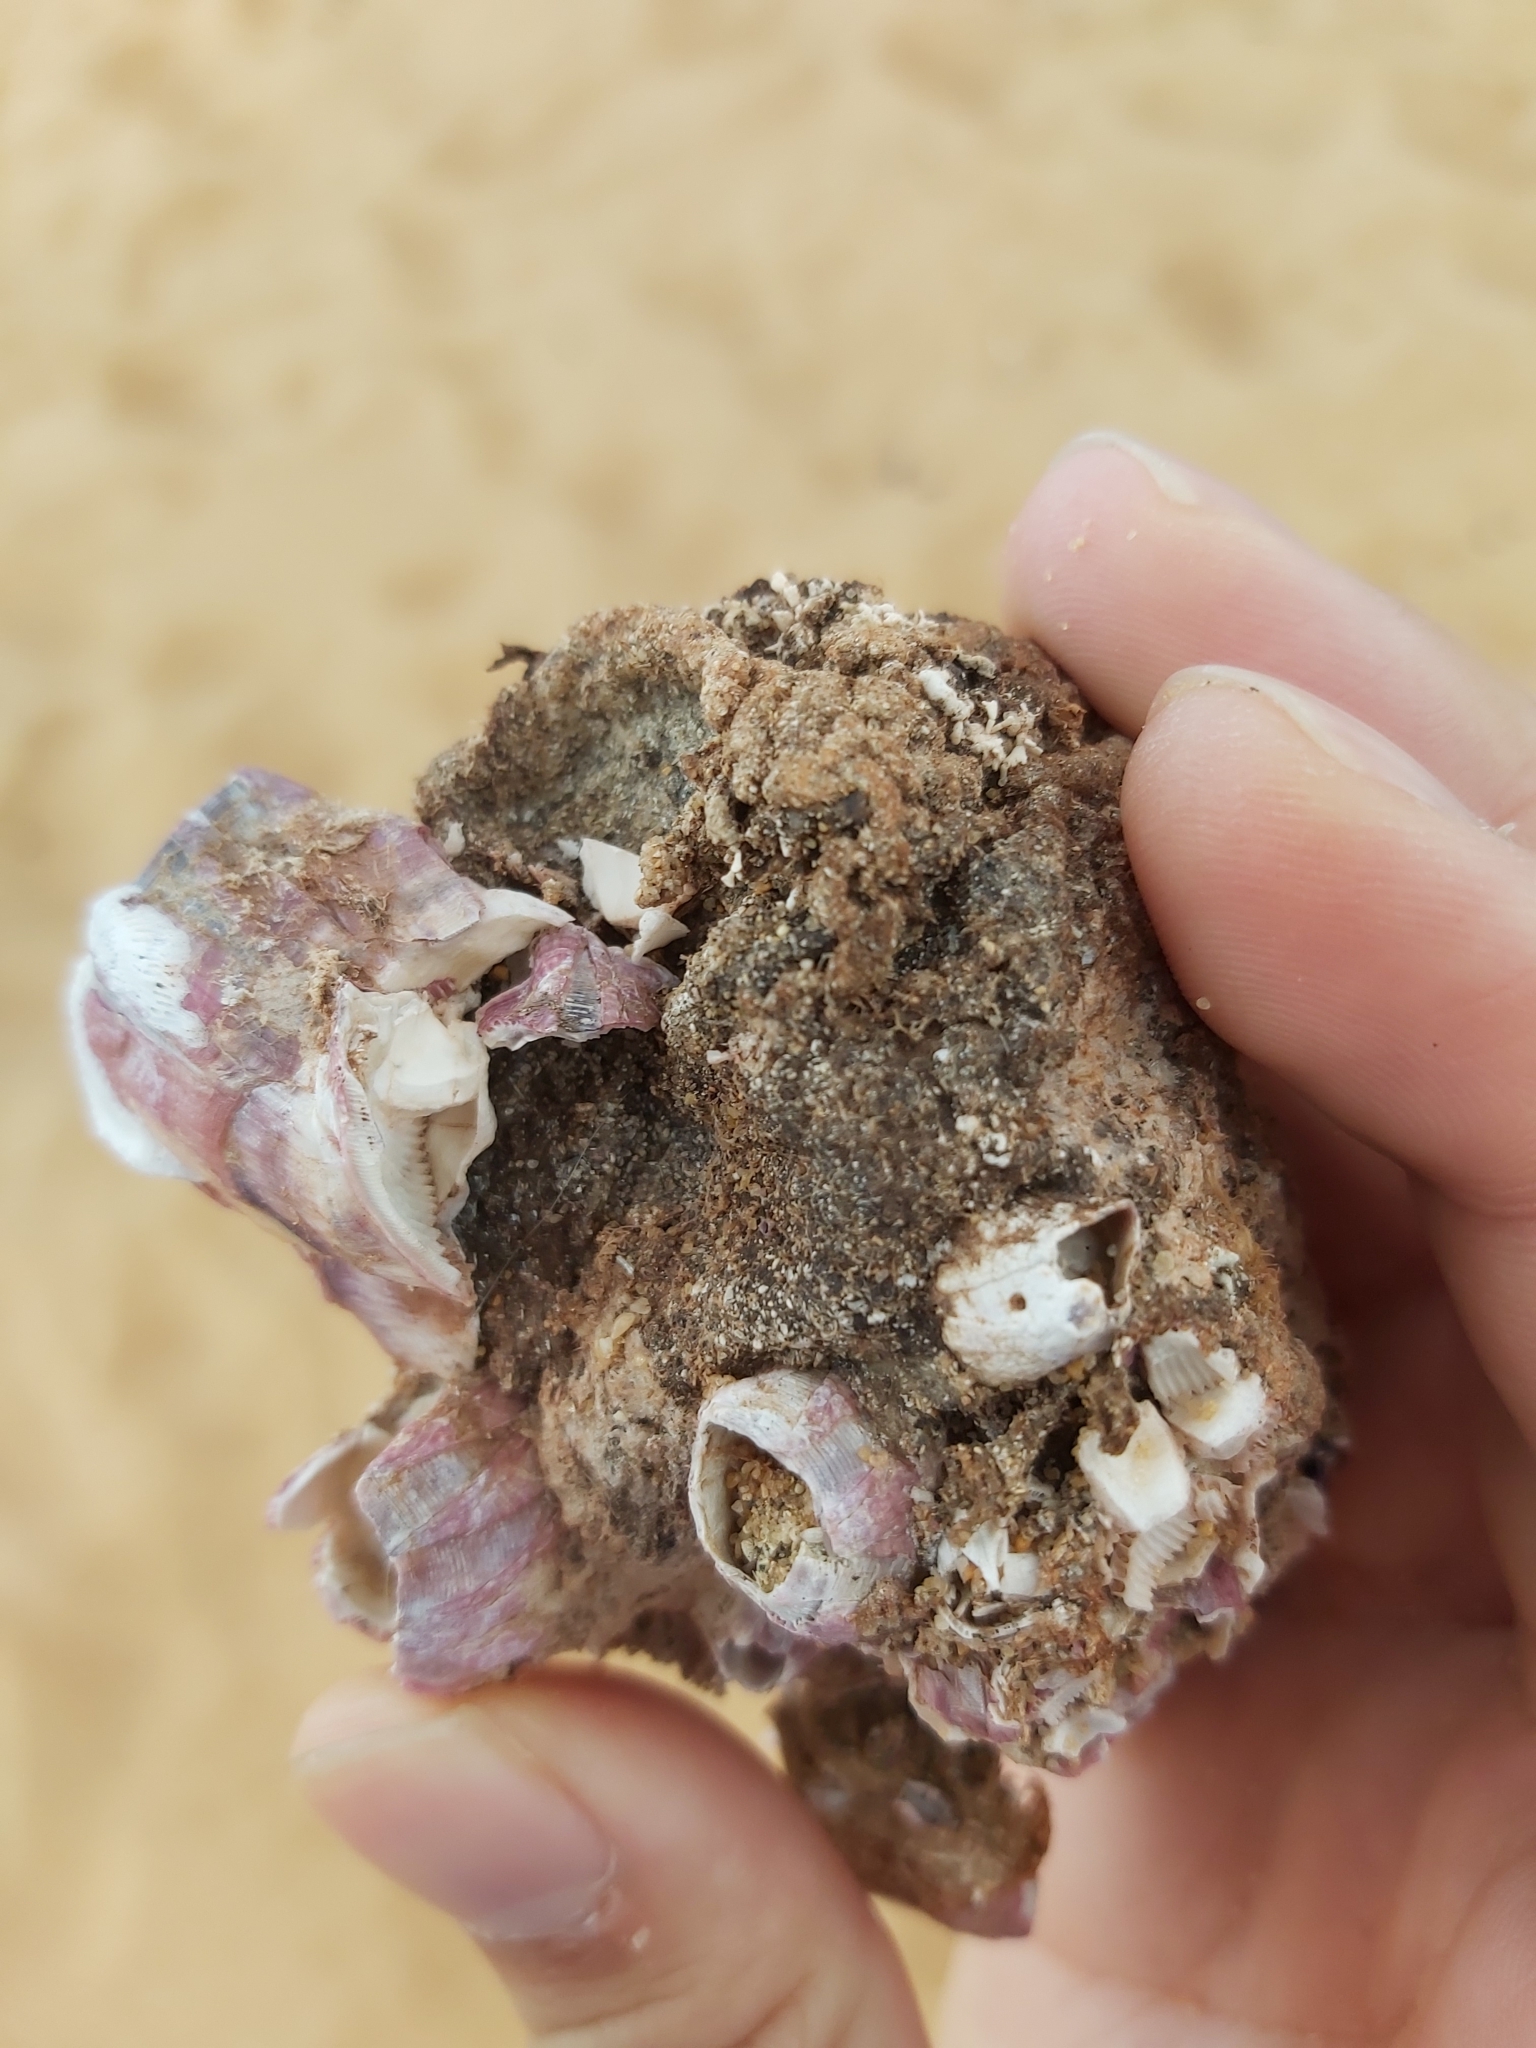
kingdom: Animalia
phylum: Arthropoda
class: Maxillopoda
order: Sessilia
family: Balanidae
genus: Megabalanus
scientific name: Megabalanus coccopoma
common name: Titan acorn barnacle
